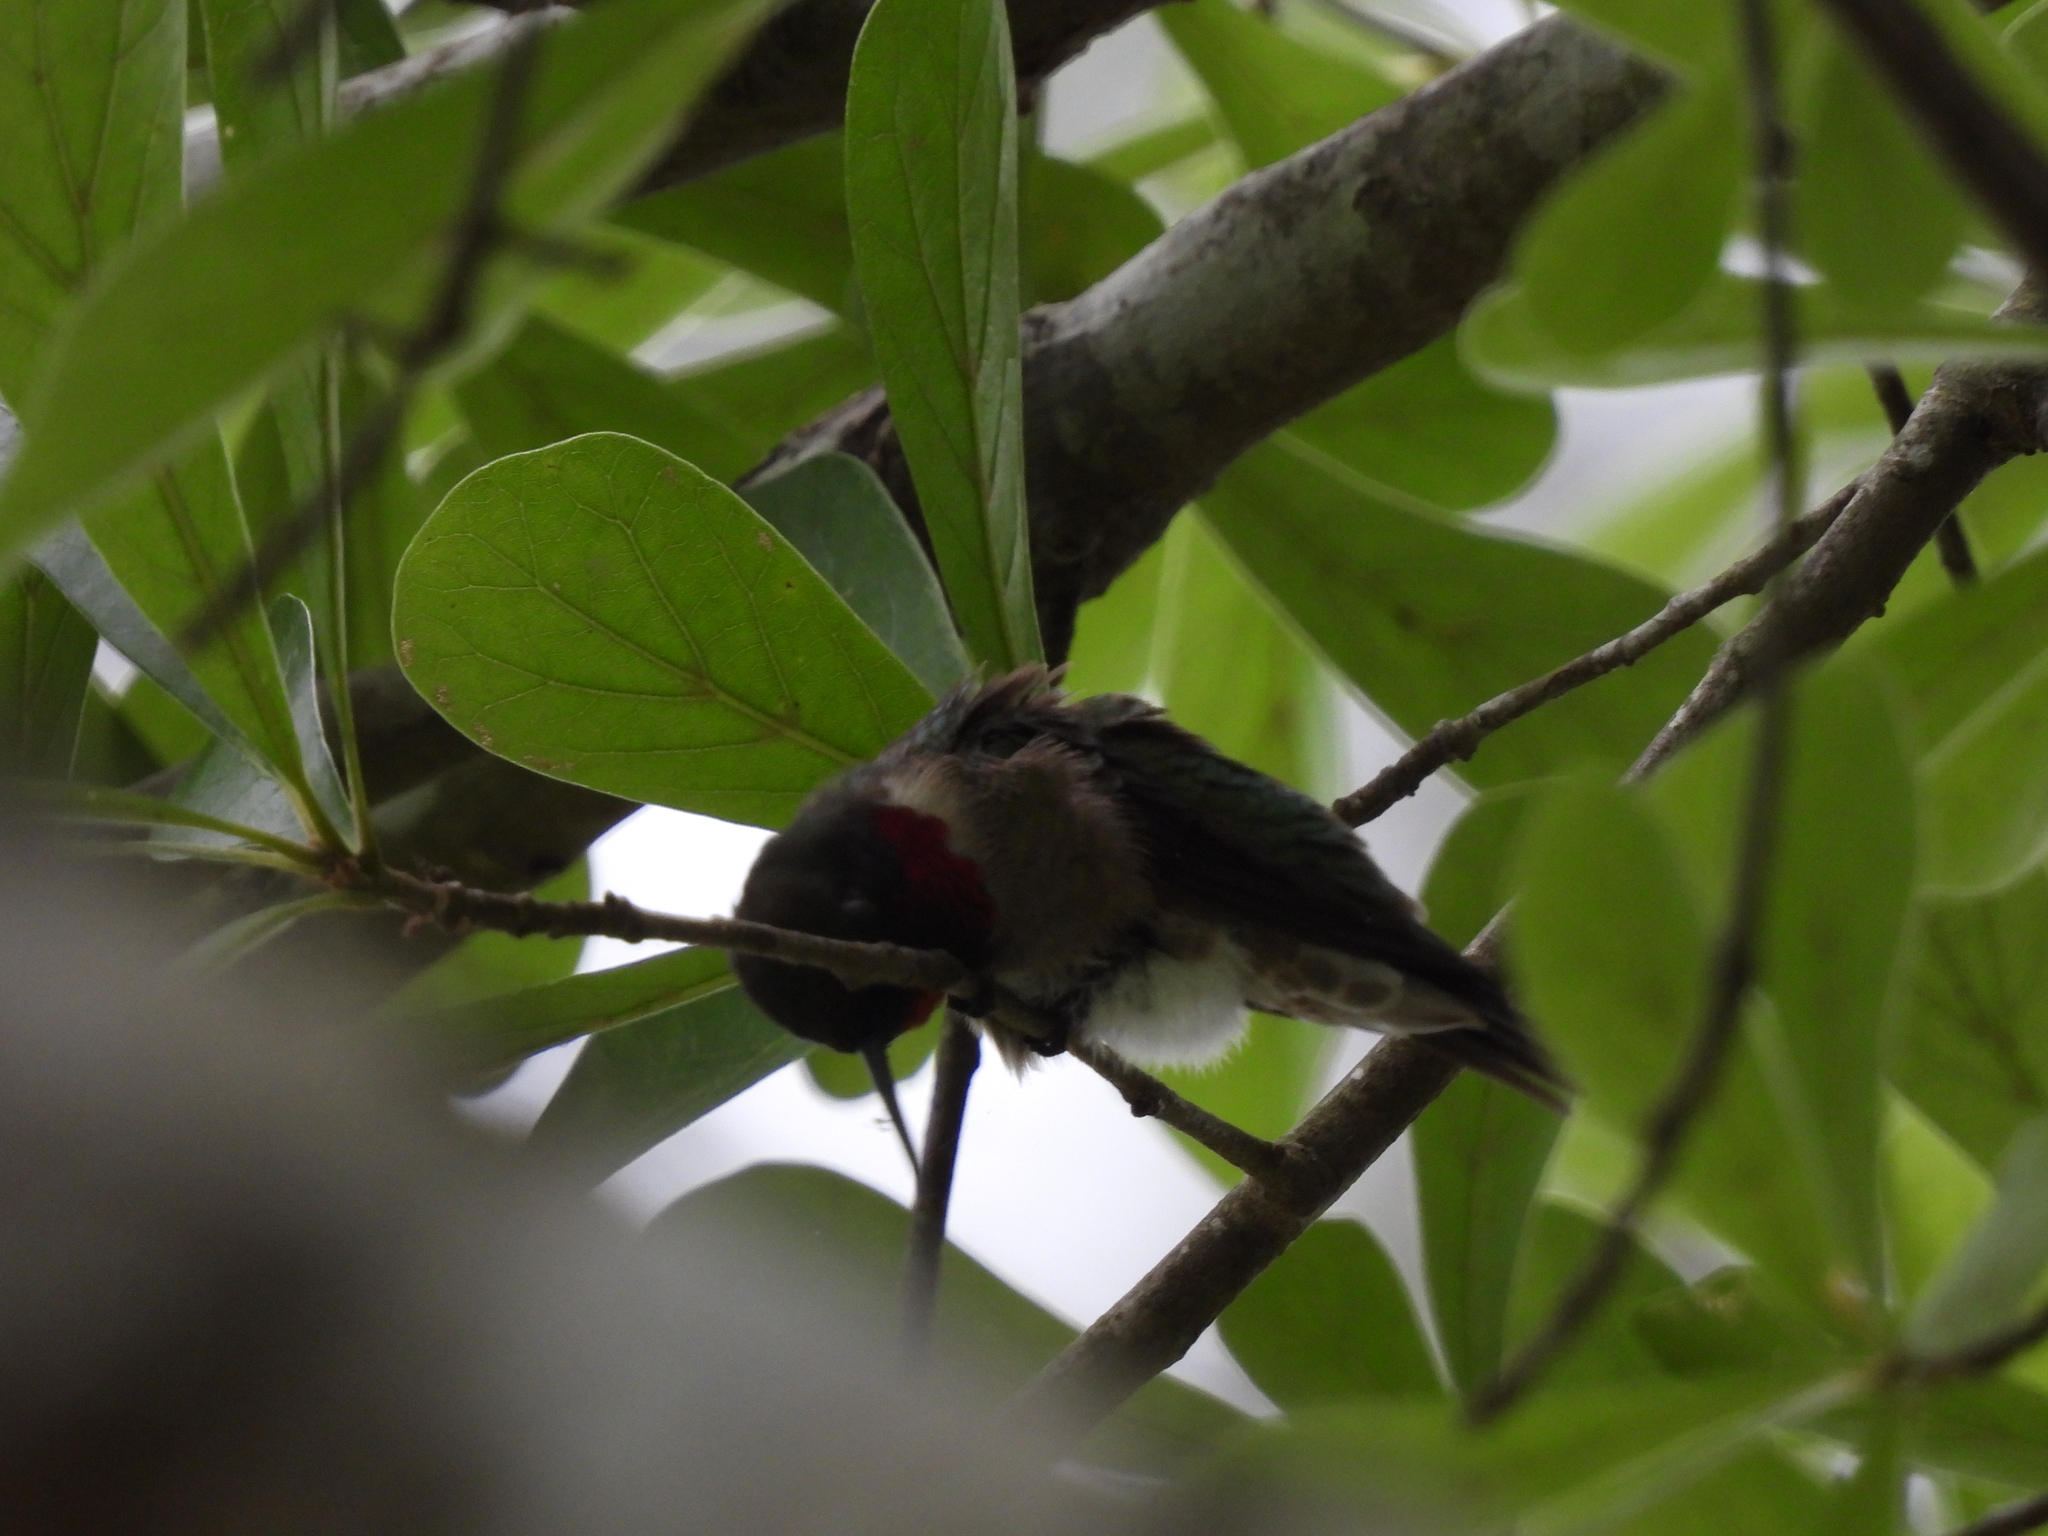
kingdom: Animalia
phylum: Chordata
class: Aves
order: Apodiformes
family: Trochilidae
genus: Archilochus
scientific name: Archilochus colubris
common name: Ruby-throated hummingbird
